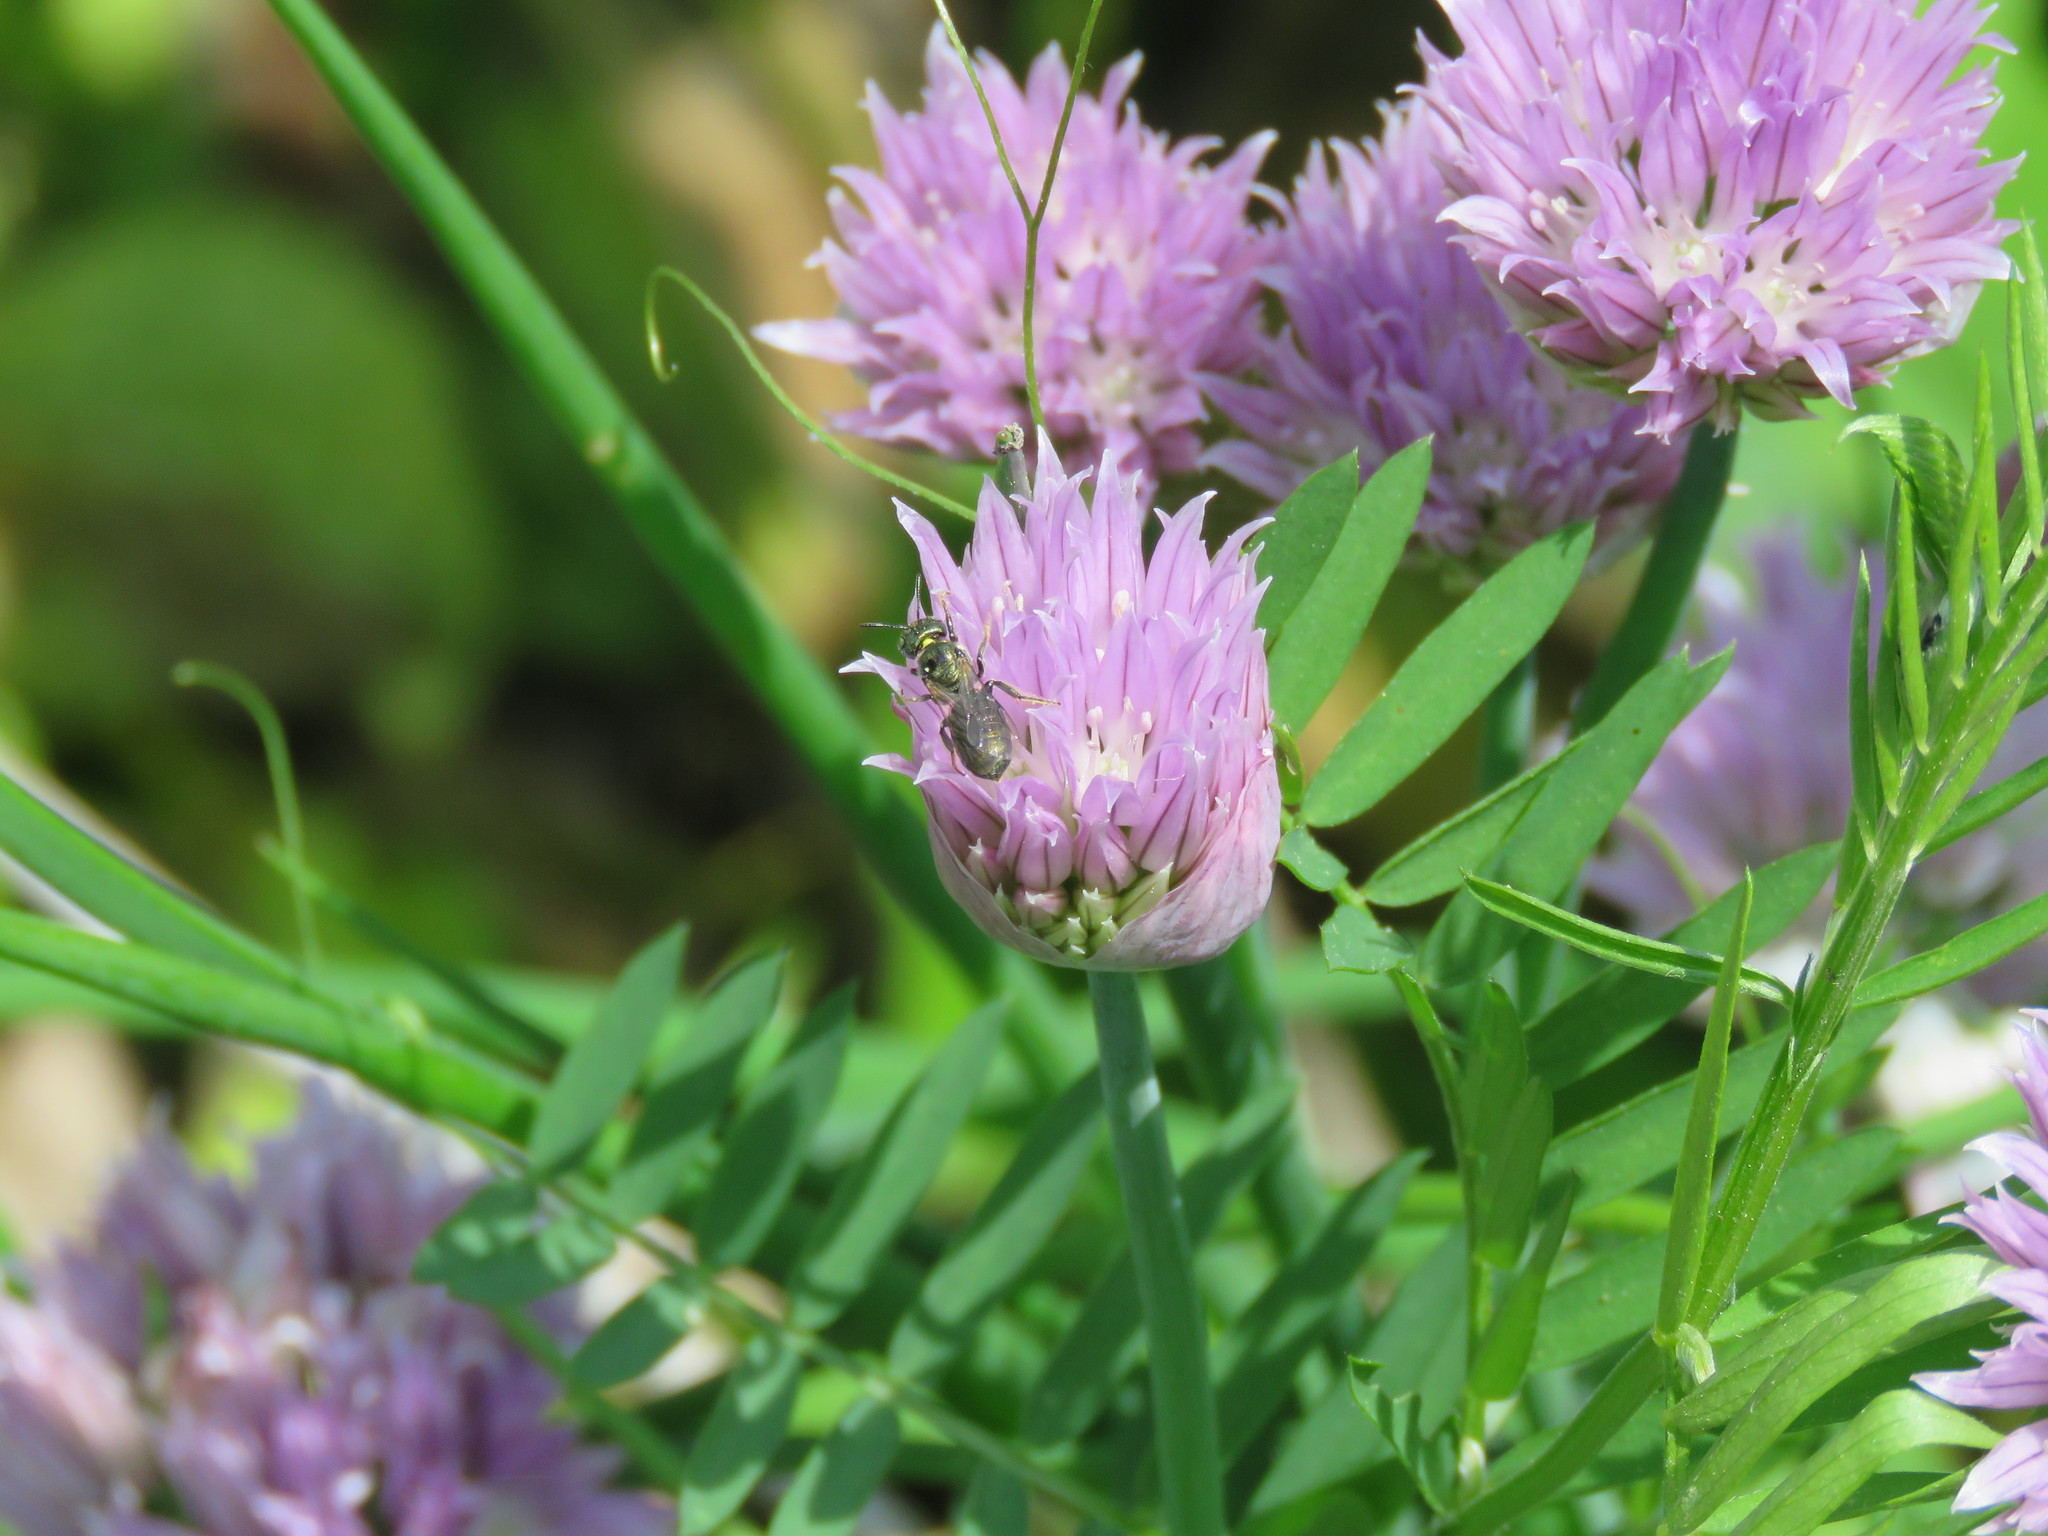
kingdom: Animalia
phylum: Arthropoda
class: Insecta
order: Hymenoptera
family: Apidae
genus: Zadontomerus
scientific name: Zadontomerus
